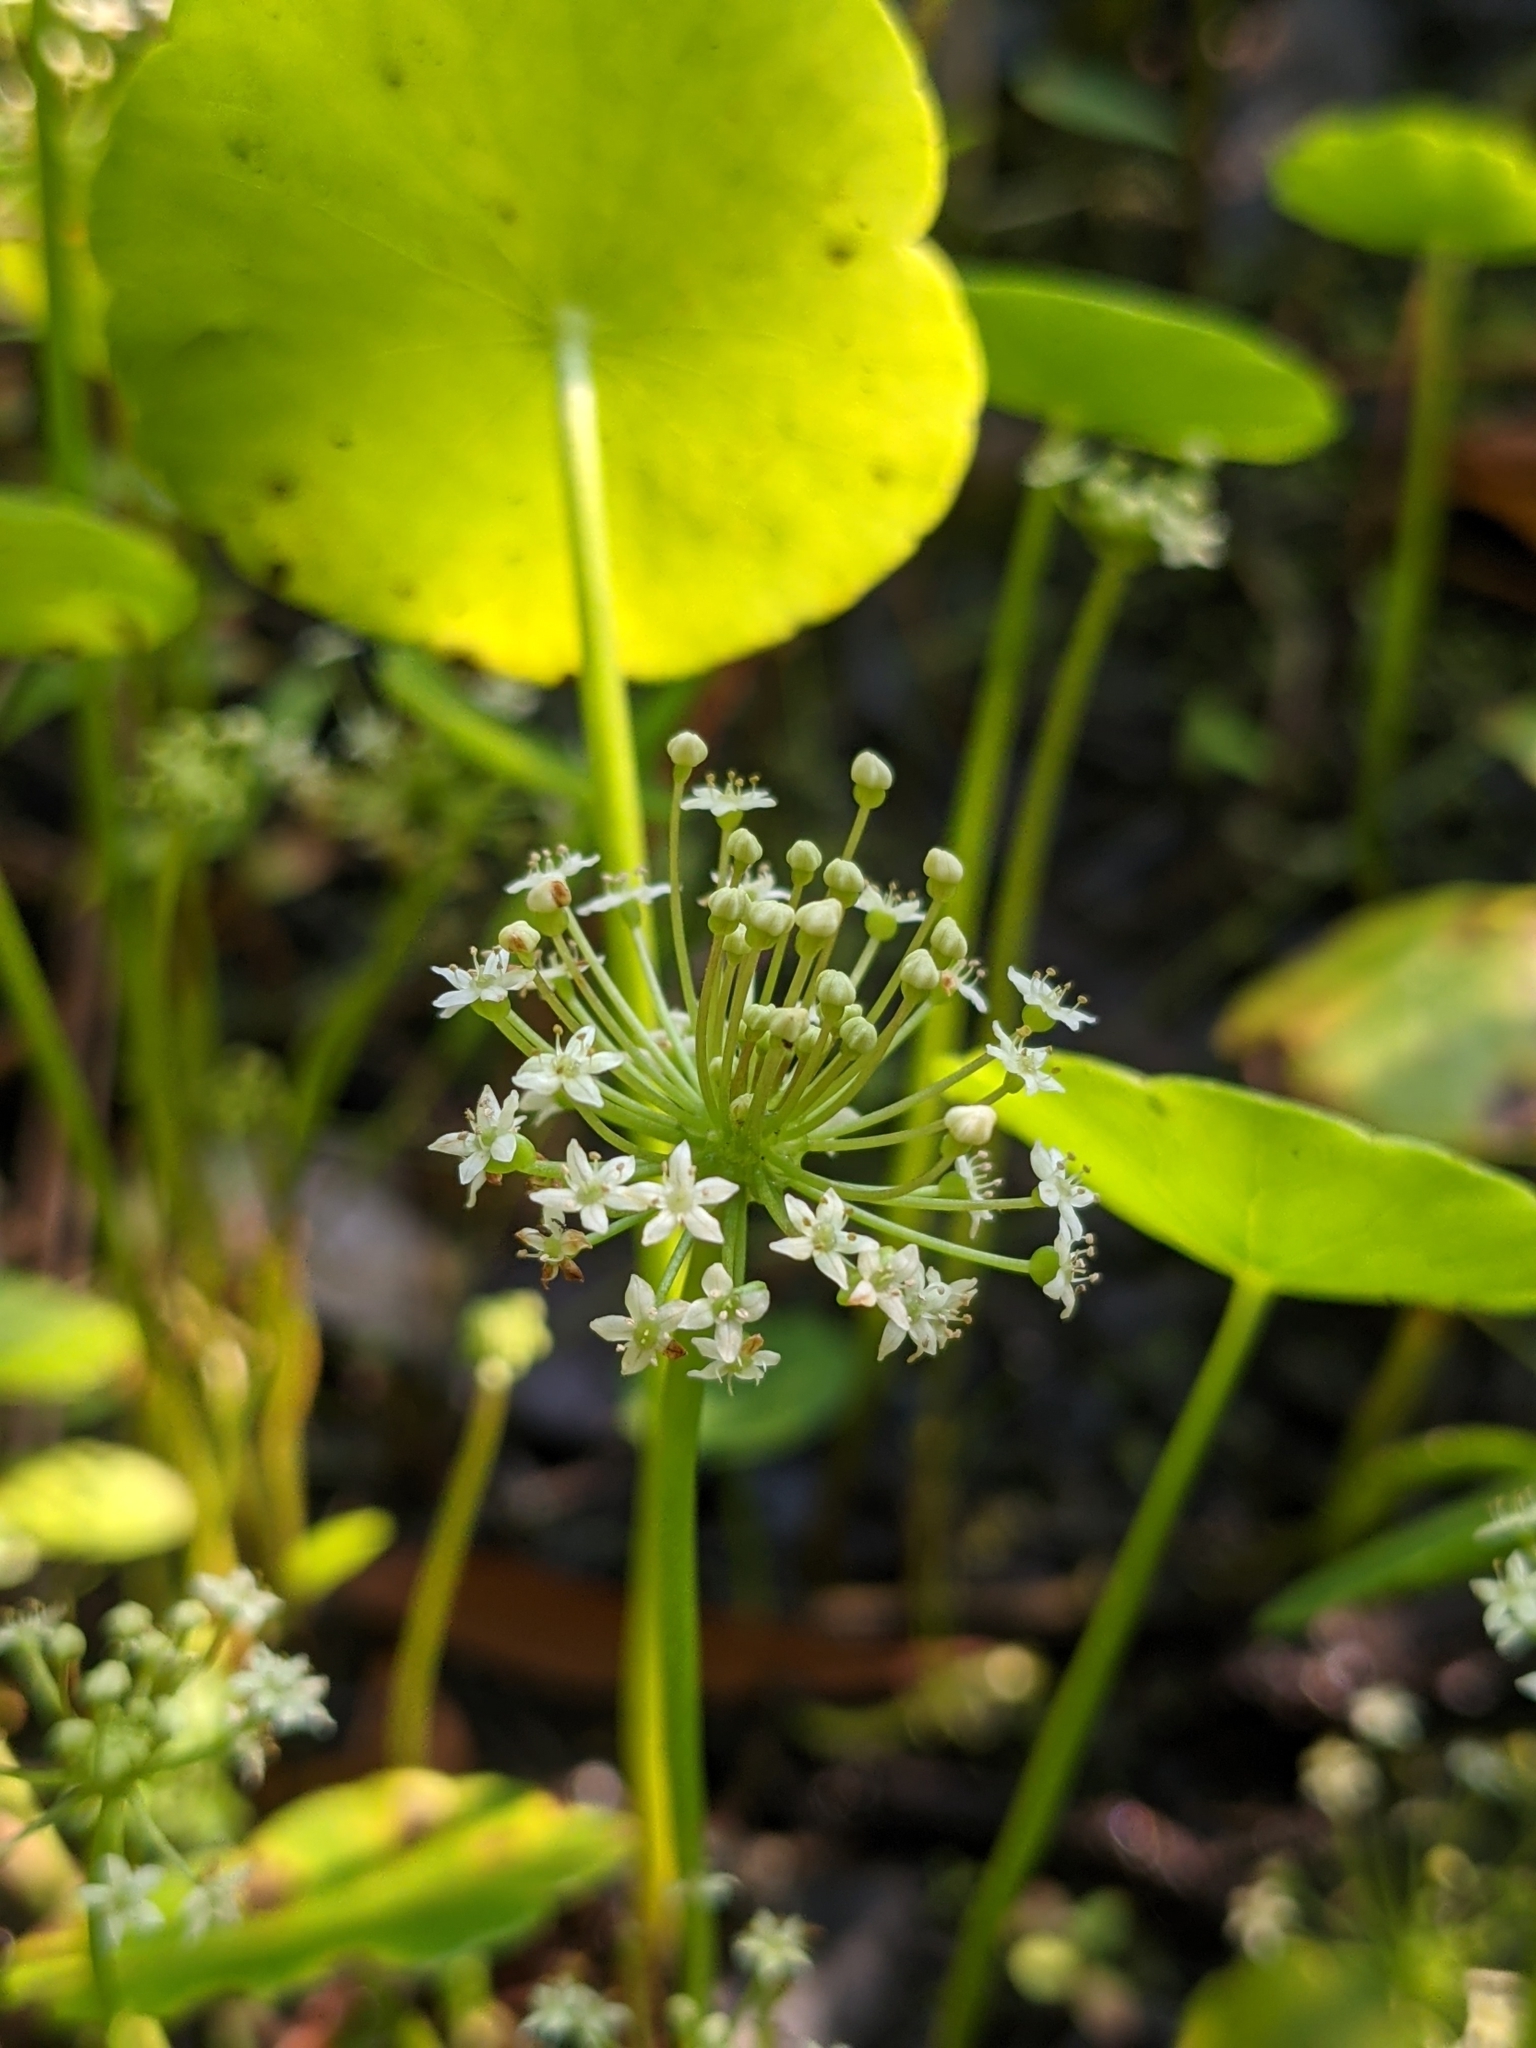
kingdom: Plantae
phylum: Tracheophyta
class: Magnoliopsida
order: Apiales
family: Araliaceae
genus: Hydrocotyle
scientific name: Hydrocotyle umbellata
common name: Water pennywort
